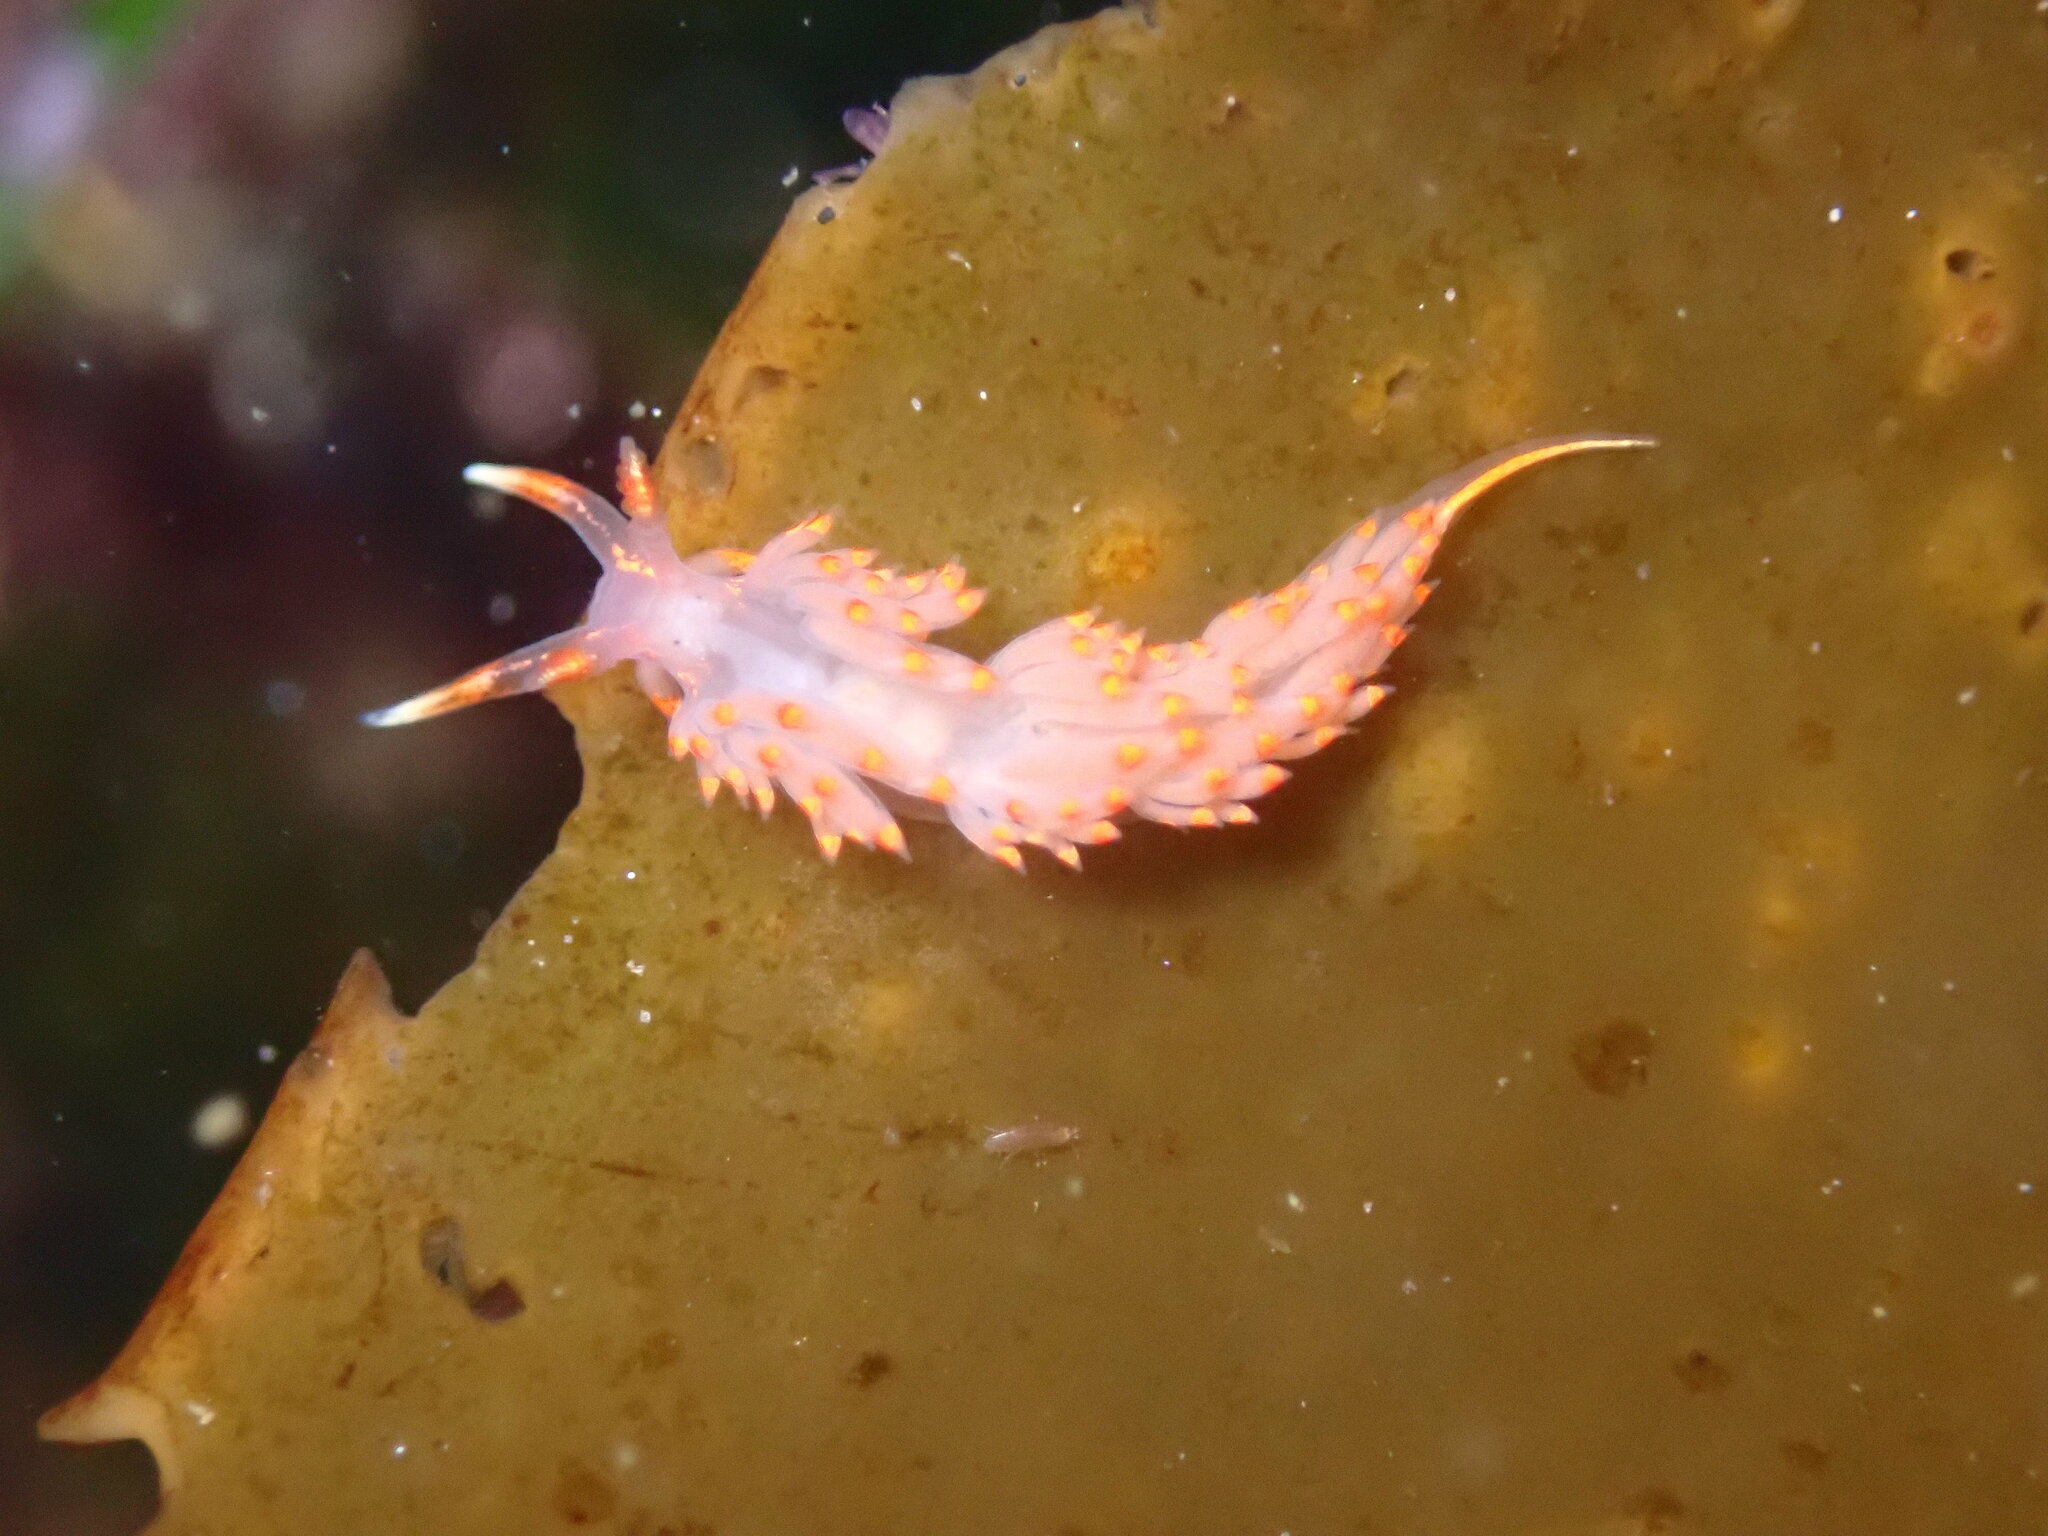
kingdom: Animalia
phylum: Mollusca
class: Gastropoda
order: Nudibranchia
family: Facelinidae
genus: Austraeolis
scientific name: Austraeolis stearnsi
